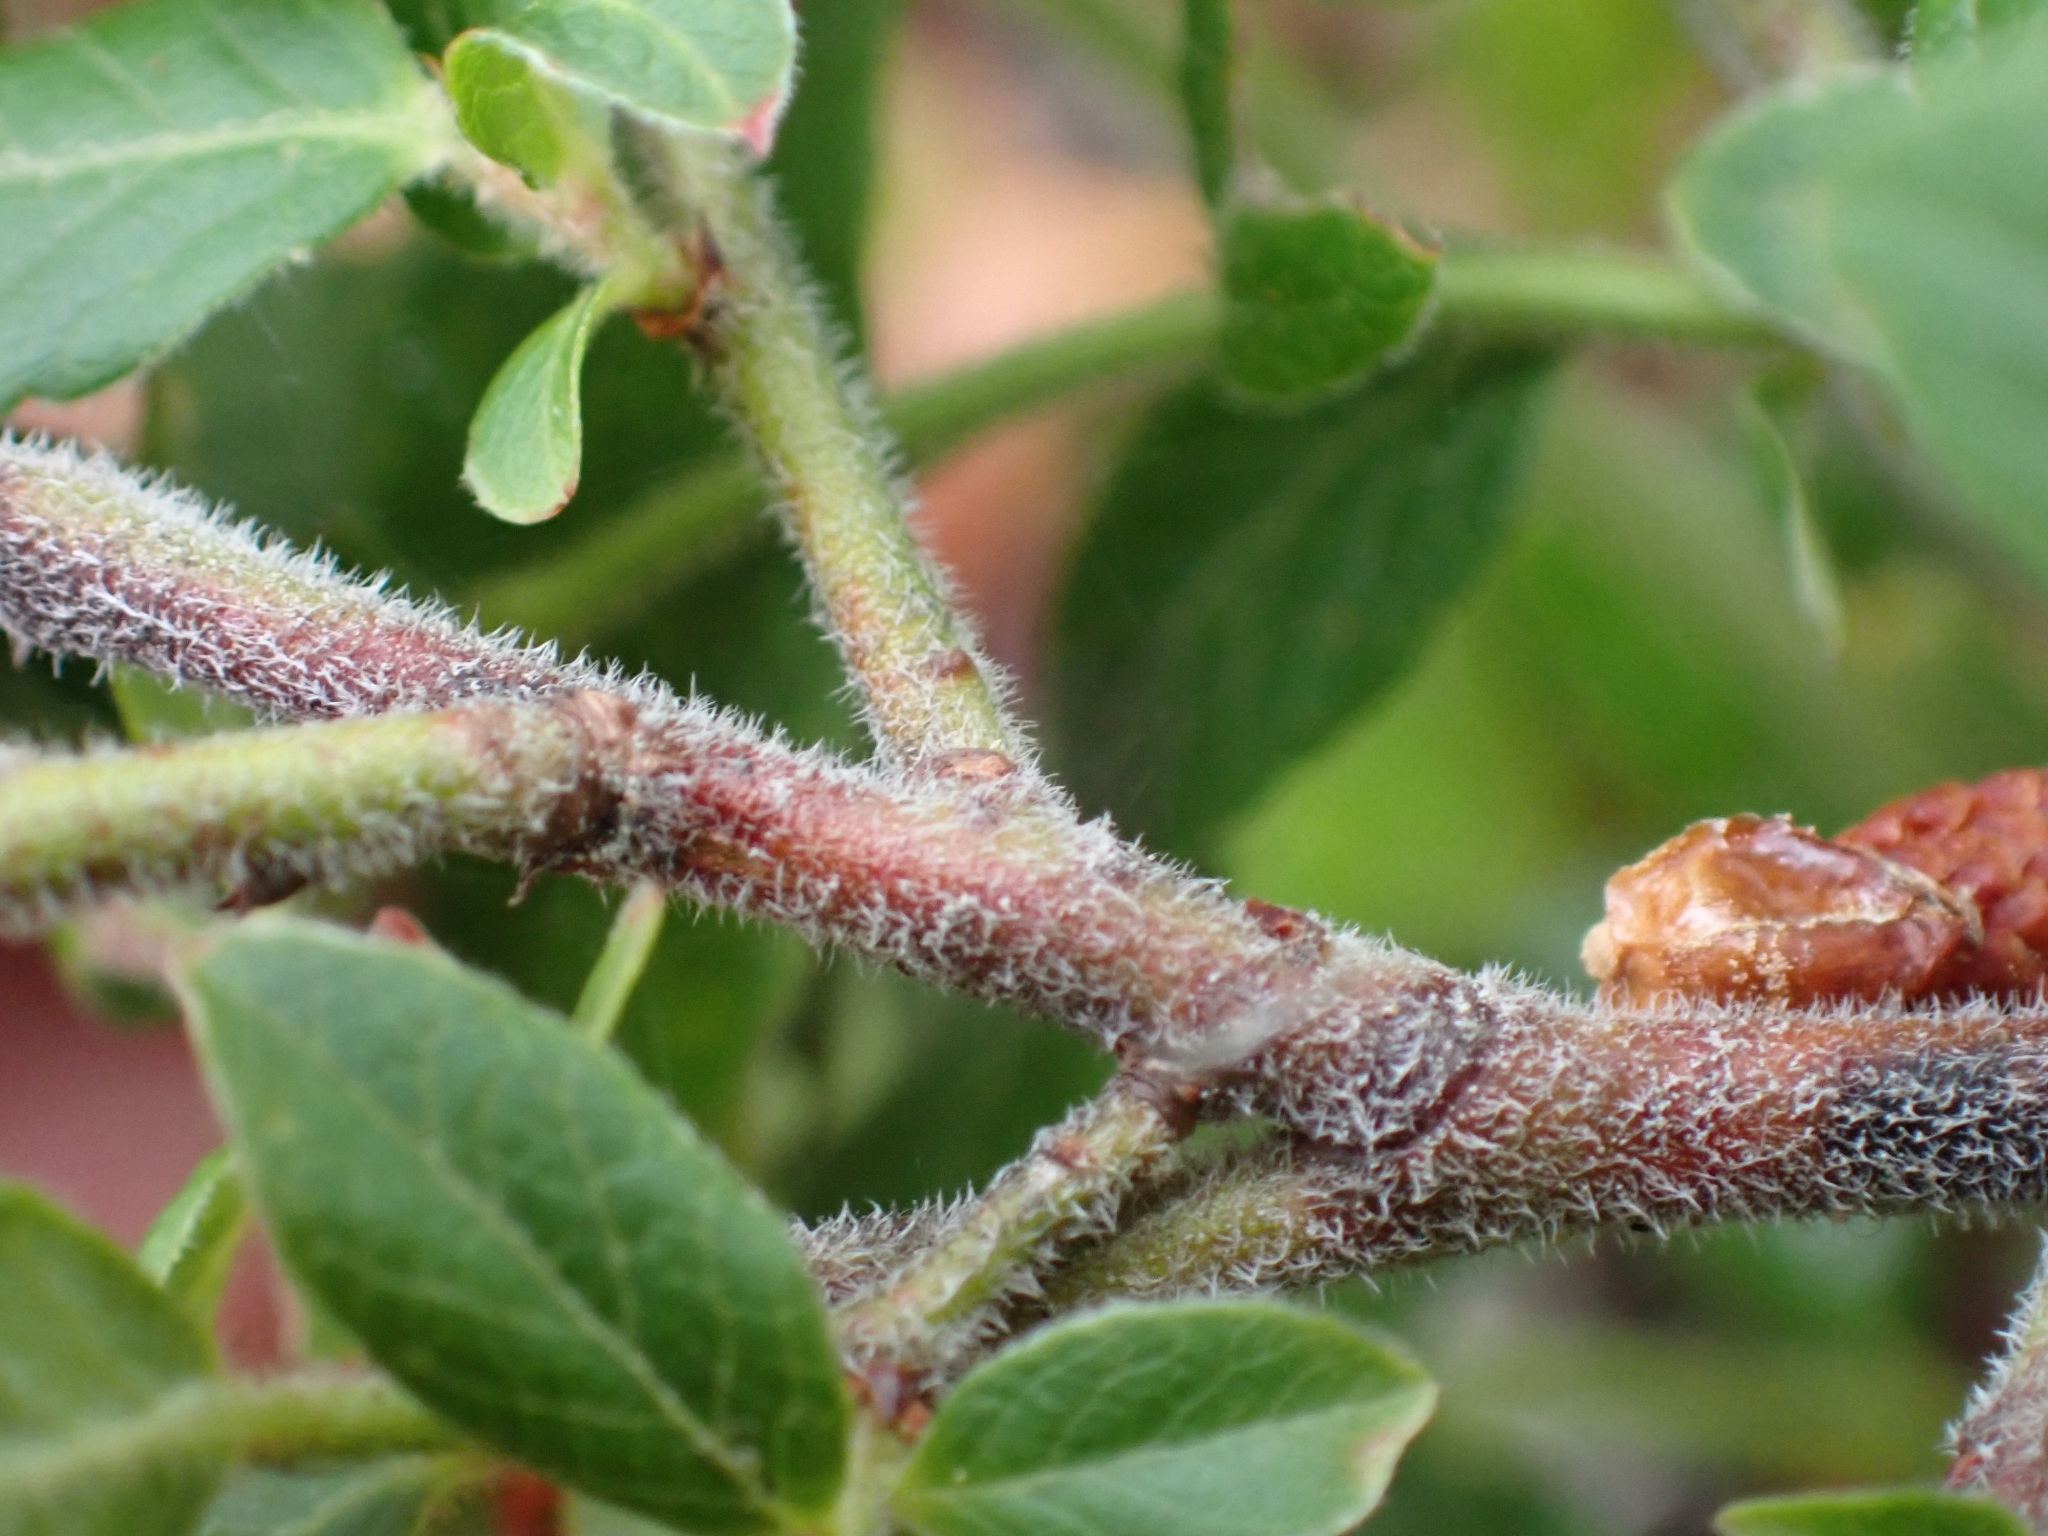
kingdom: Plantae
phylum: Tracheophyta
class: Magnoliopsida
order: Ericales
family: Ericaceae
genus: Vaccinium
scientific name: Vaccinium myrtilloides
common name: Canada blueberry
